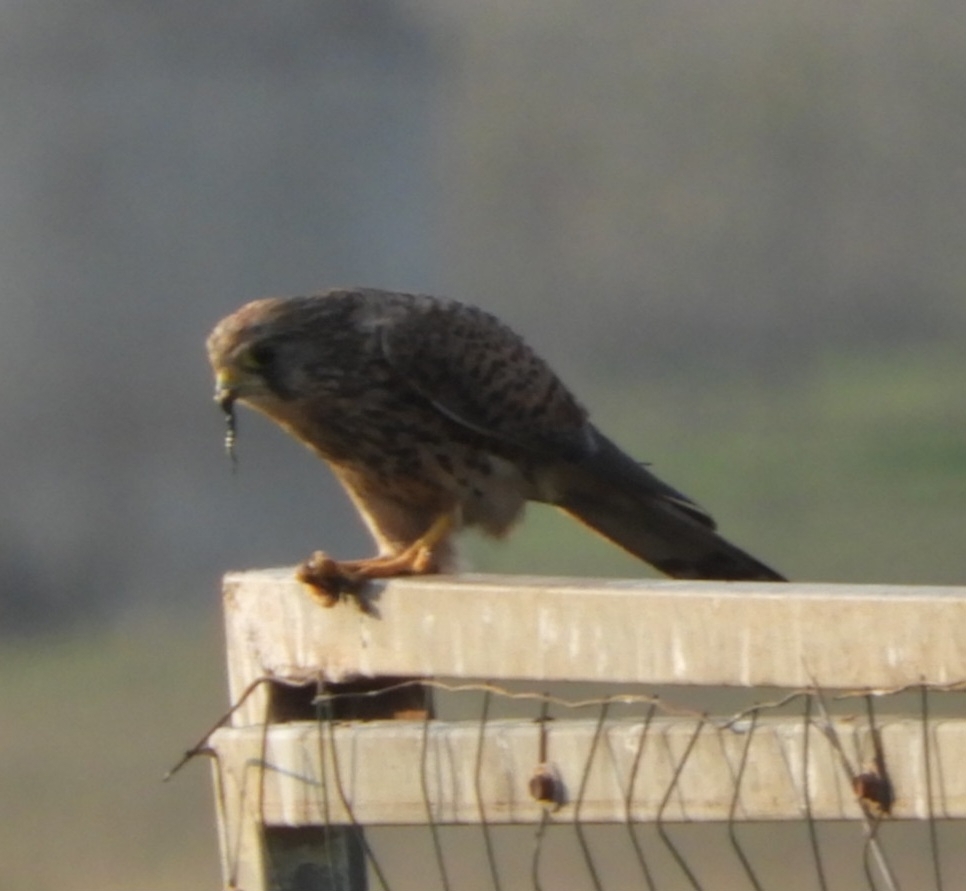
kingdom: Animalia
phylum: Chordata
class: Aves
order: Falconiformes
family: Falconidae
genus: Falco
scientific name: Falco tinnunculus
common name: Common kestrel
